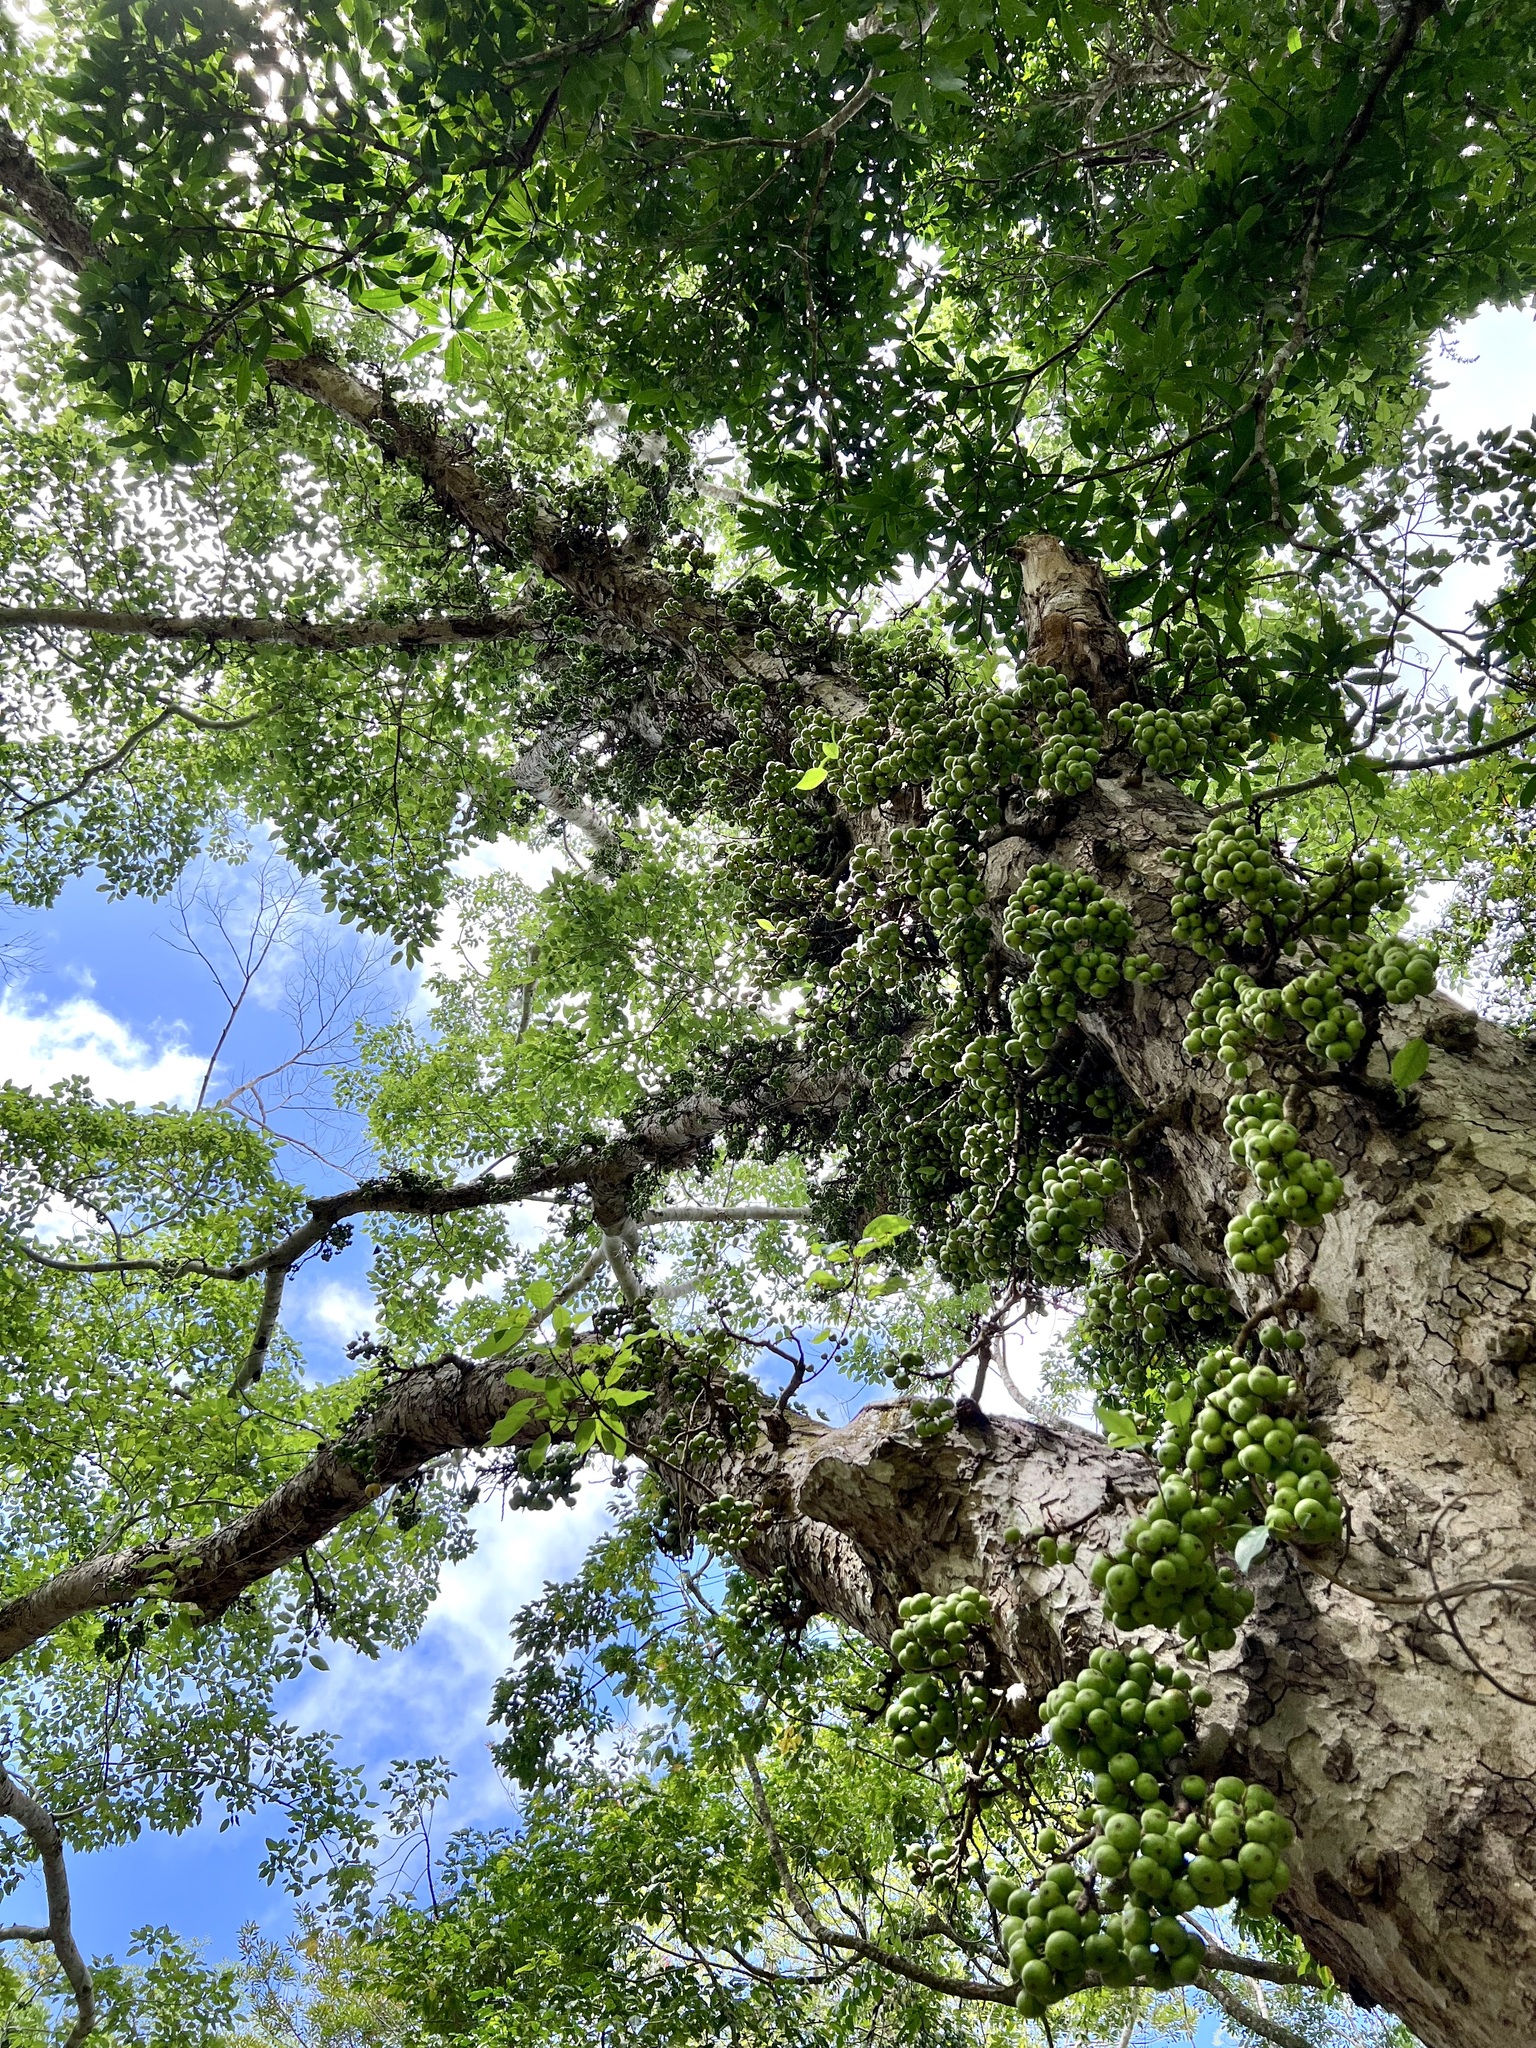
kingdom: Plantae
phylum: Tracheophyta
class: Magnoliopsida
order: Rosales
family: Moraceae
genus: Ficus
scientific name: Ficus racemosa
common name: Cluster fig
